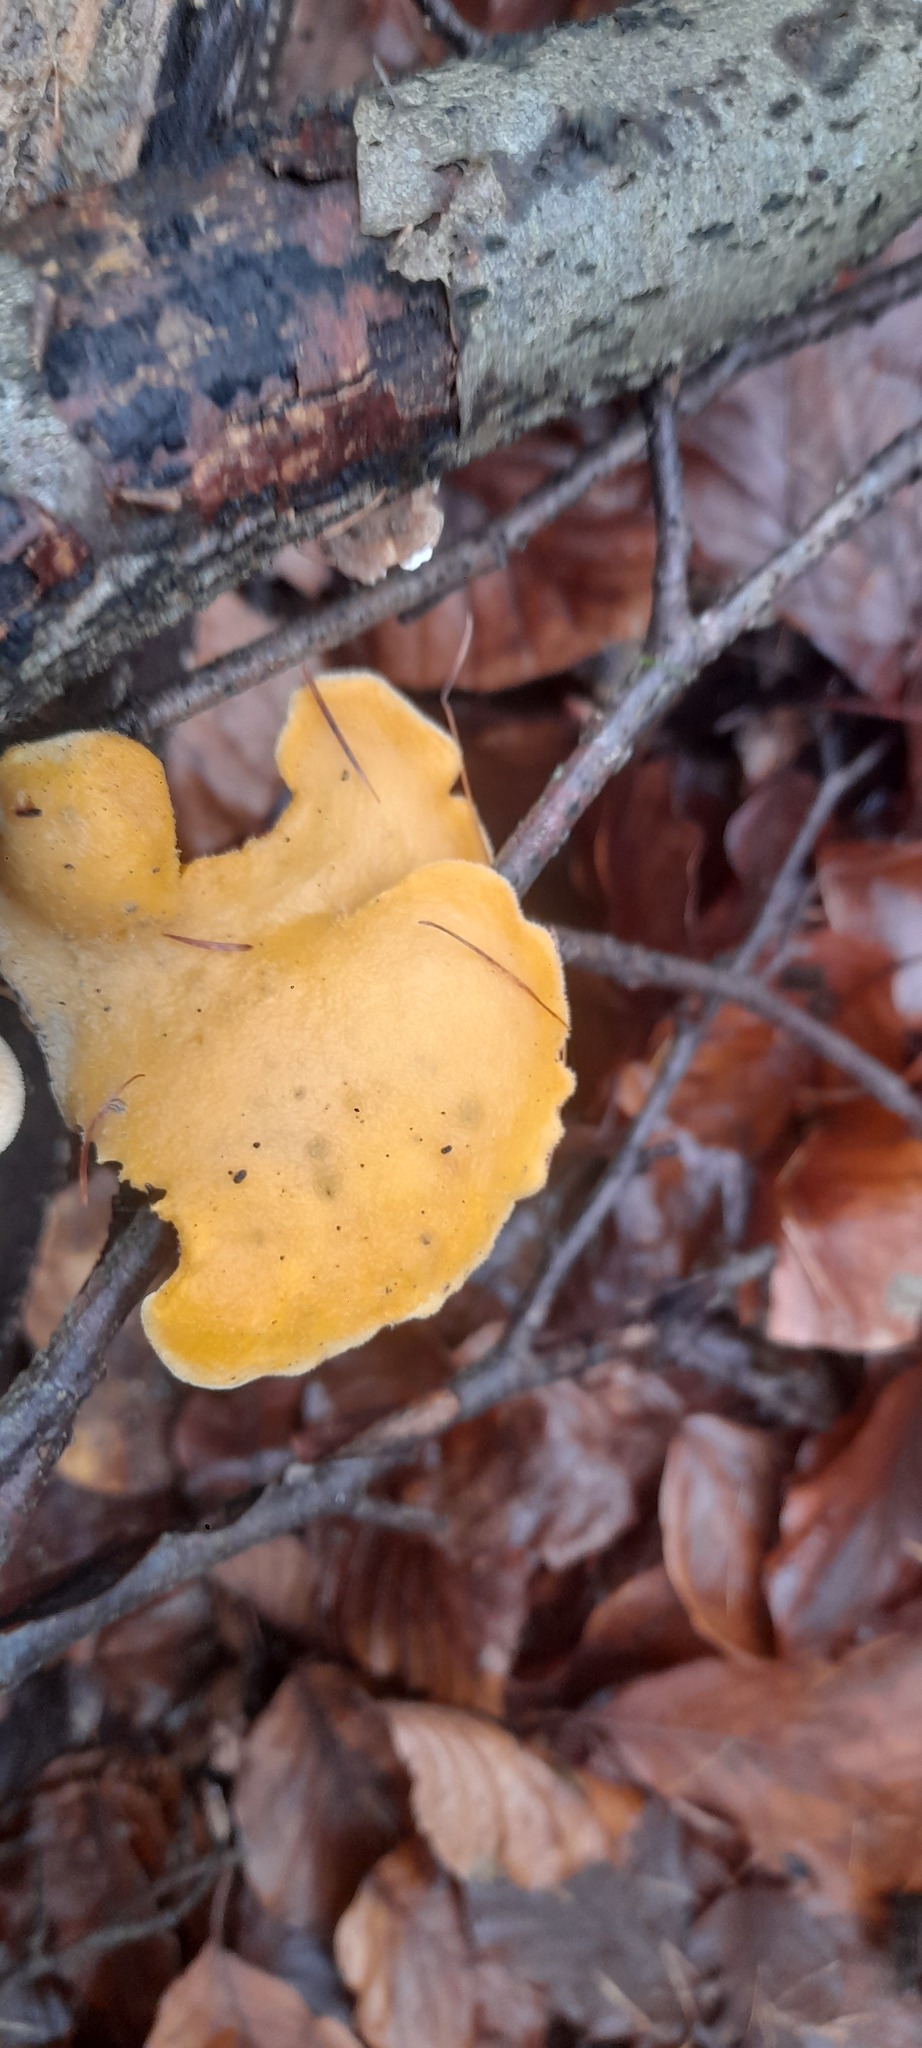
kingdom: Fungi
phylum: Basidiomycota
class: Agaricomycetes
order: Agaricales
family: Phyllotopsidaceae
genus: Phyllotopsis
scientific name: Phyllotopsis nidulans
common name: Orange mock oyster
